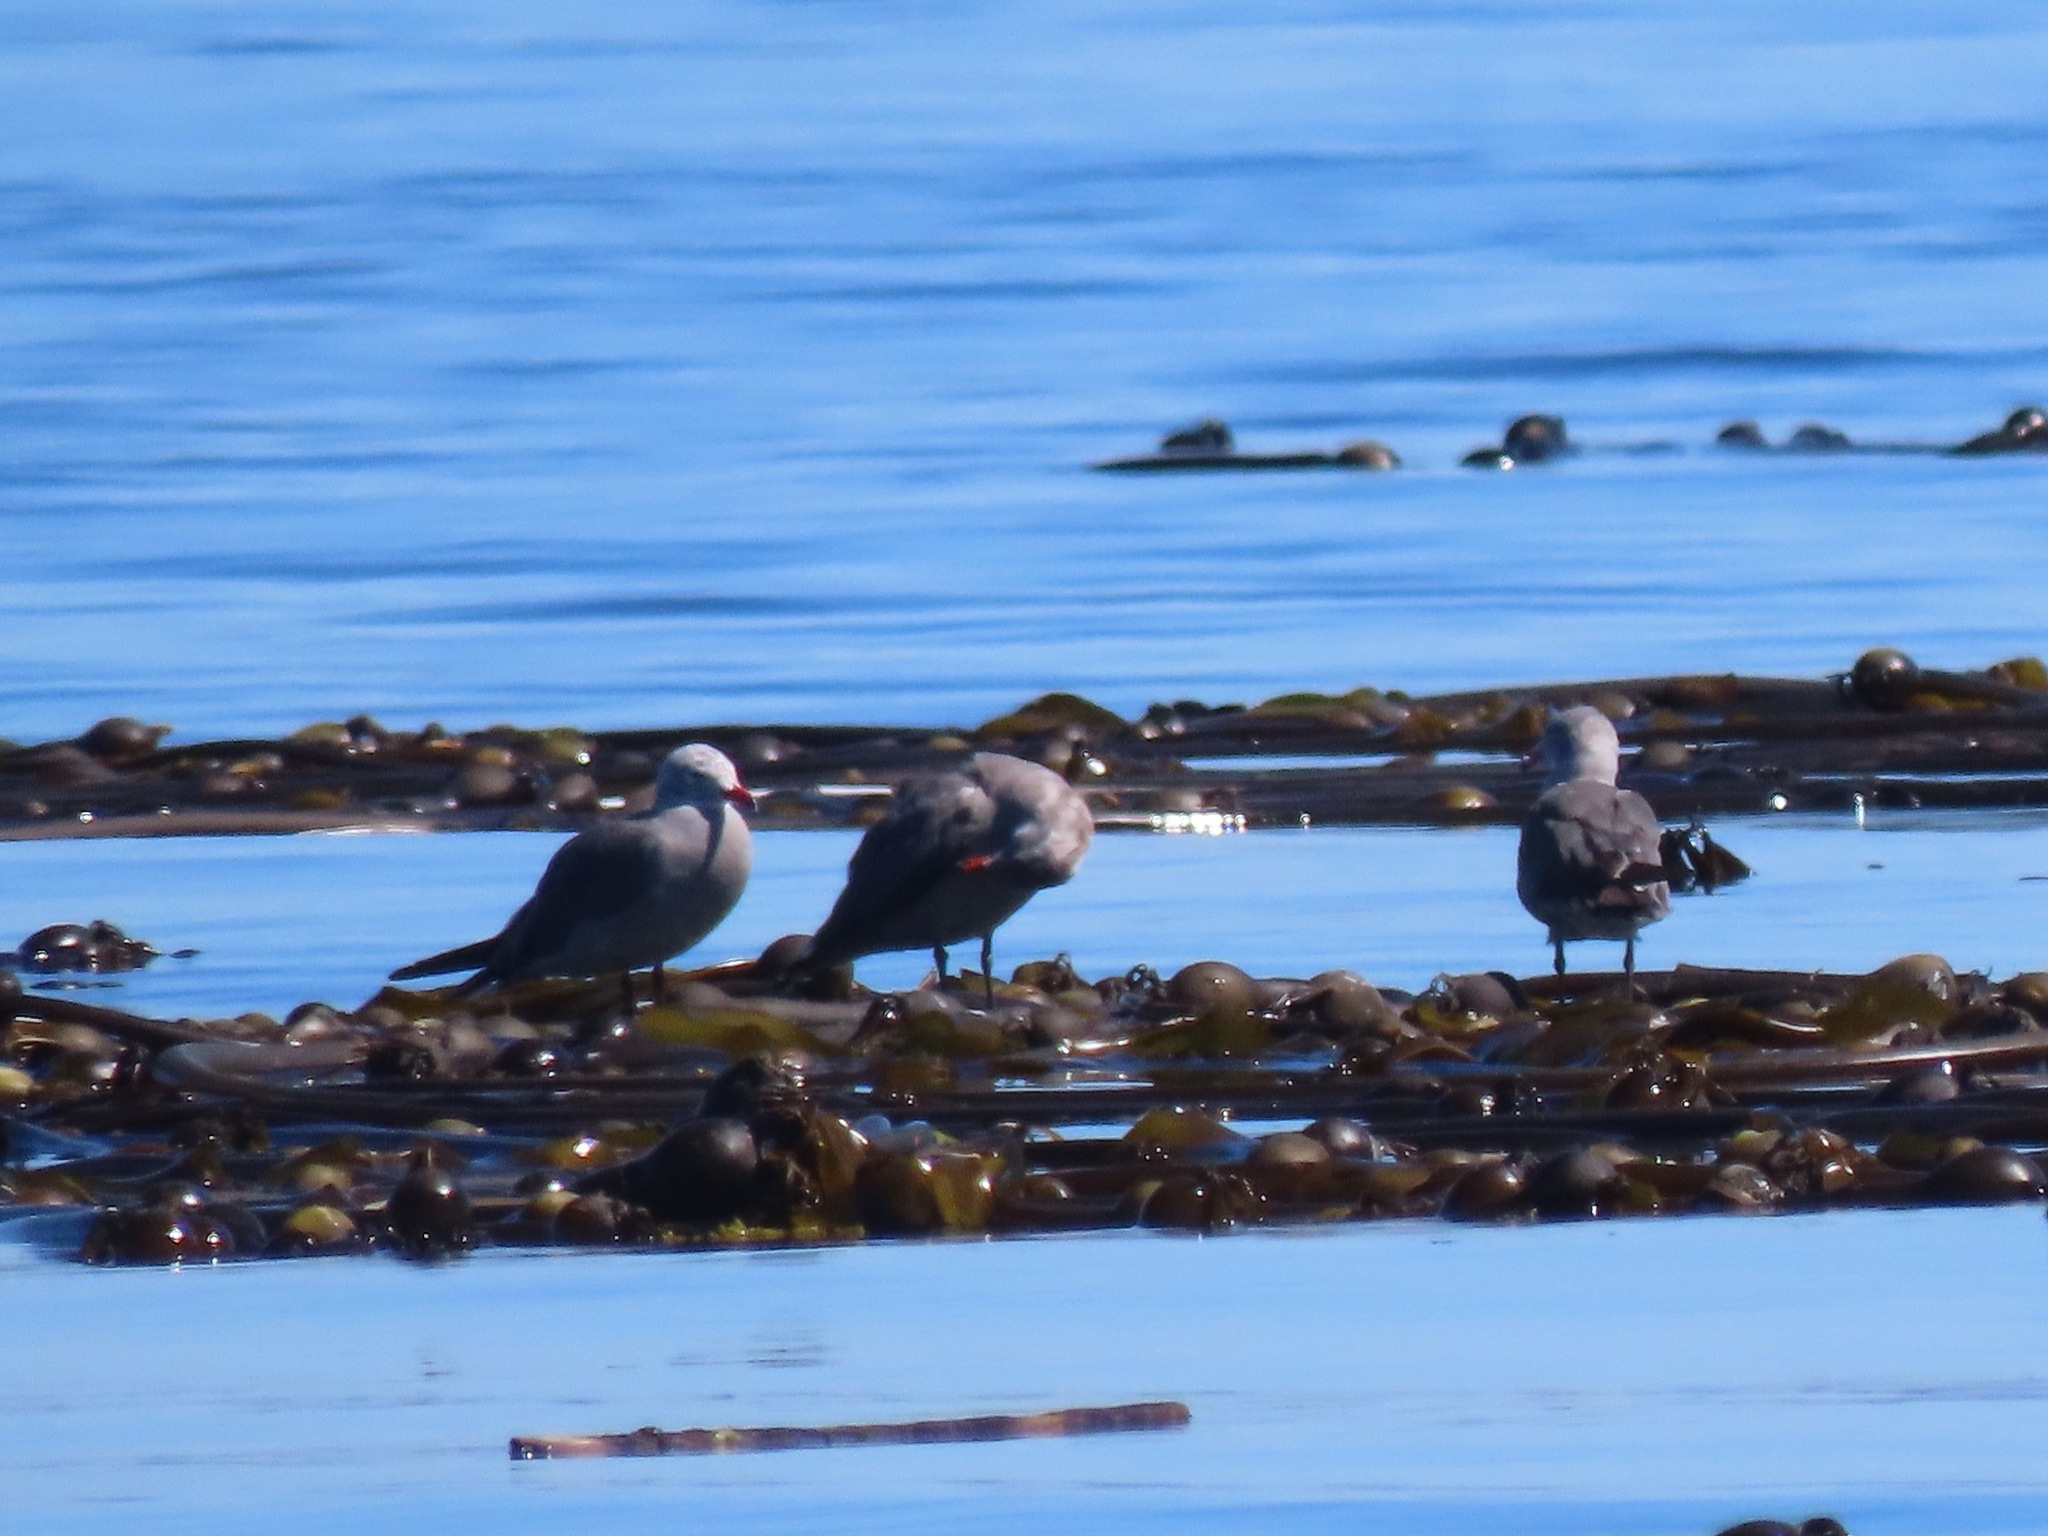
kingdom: Animalia
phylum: Chordata
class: Aves
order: Charadriiformes
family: Laridae
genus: Larus
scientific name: Larus heermanni
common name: Heermann's gull
